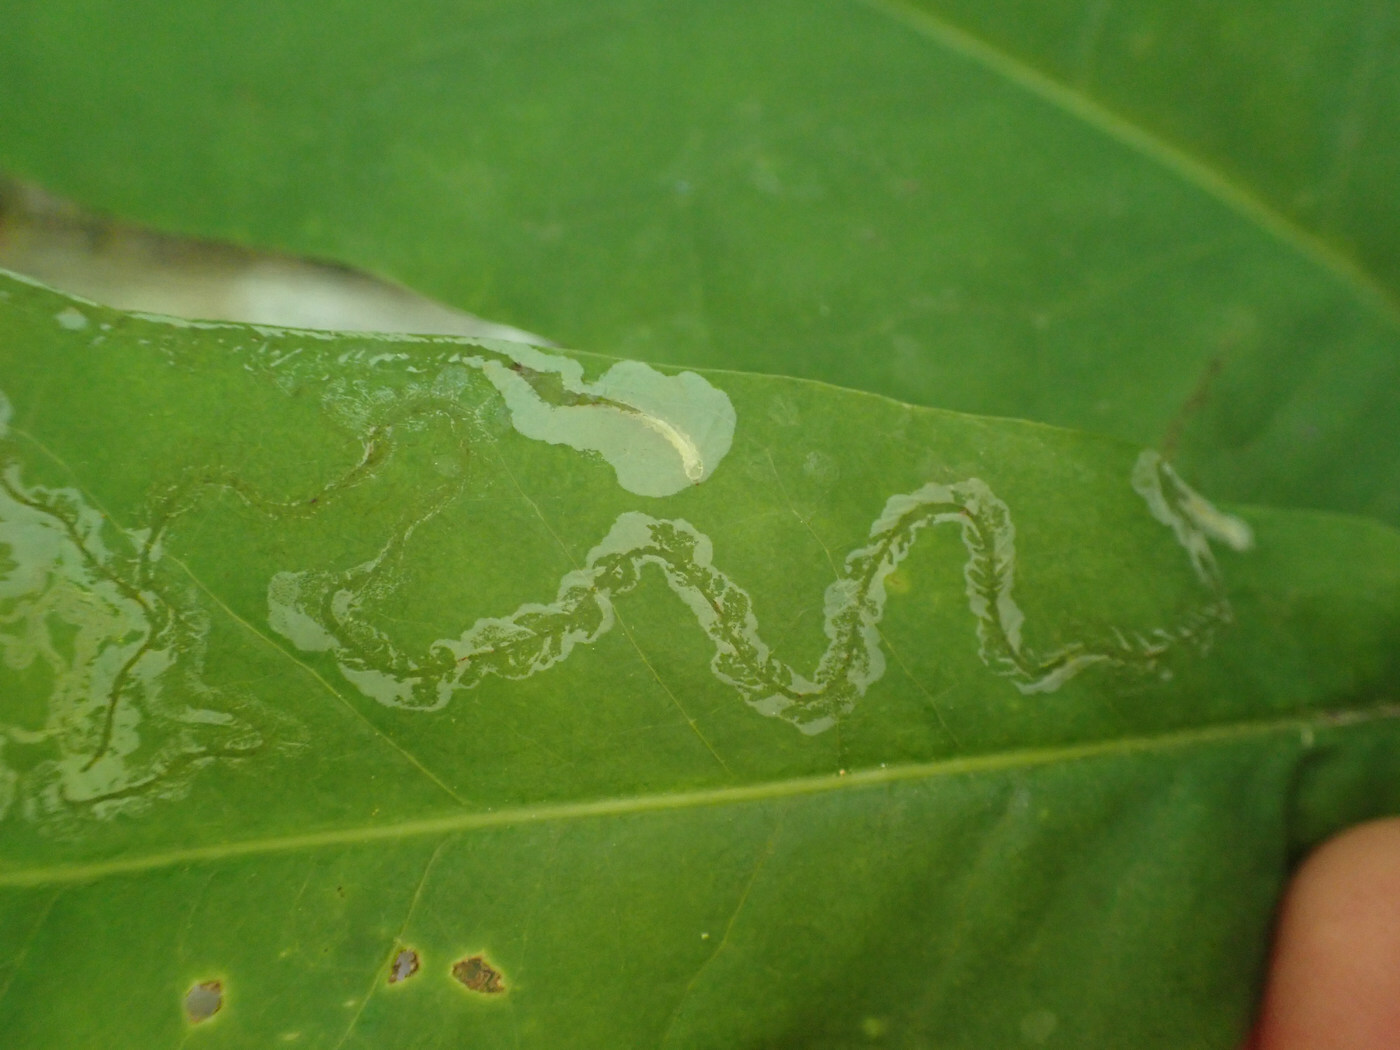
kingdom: Animalia
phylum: Arthropoda
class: Insecta
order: Lepidoptera
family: Gracillariidae
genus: Phyllocnistis
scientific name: Phyllocnistis liriodendronella
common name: Tulip tree leaf miner
